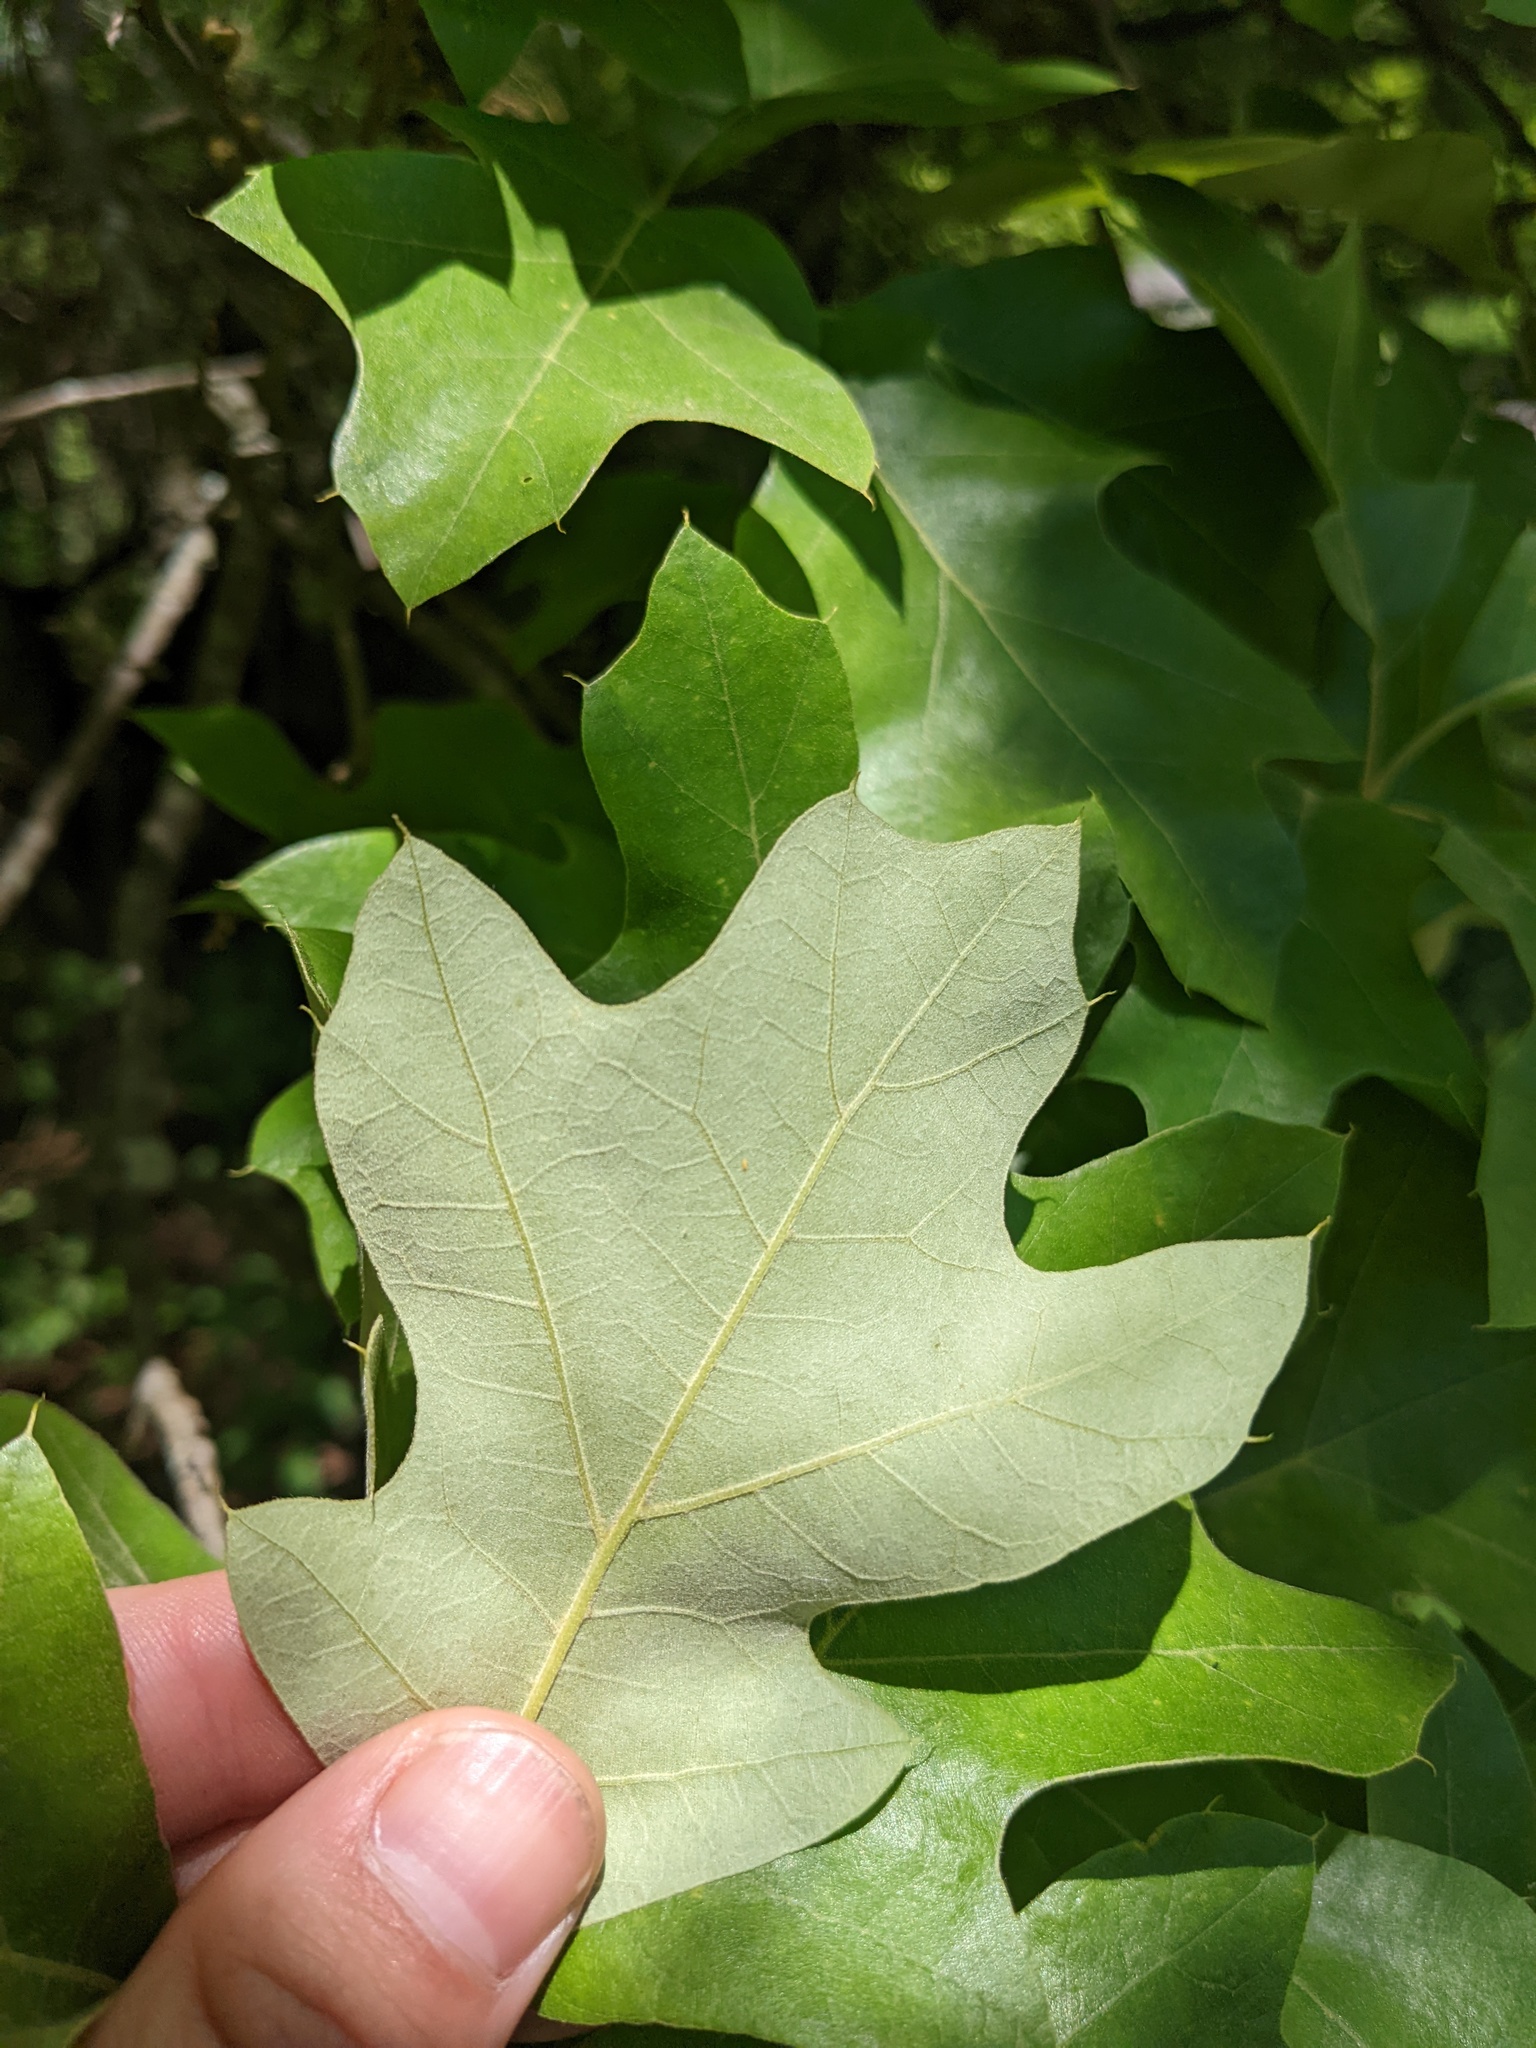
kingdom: Plantae
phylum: Tracheophyta
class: Magnoliopsida
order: Fagales
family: Fagaceae
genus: Quercus
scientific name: Quercus ilicifolia
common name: Bear oak
